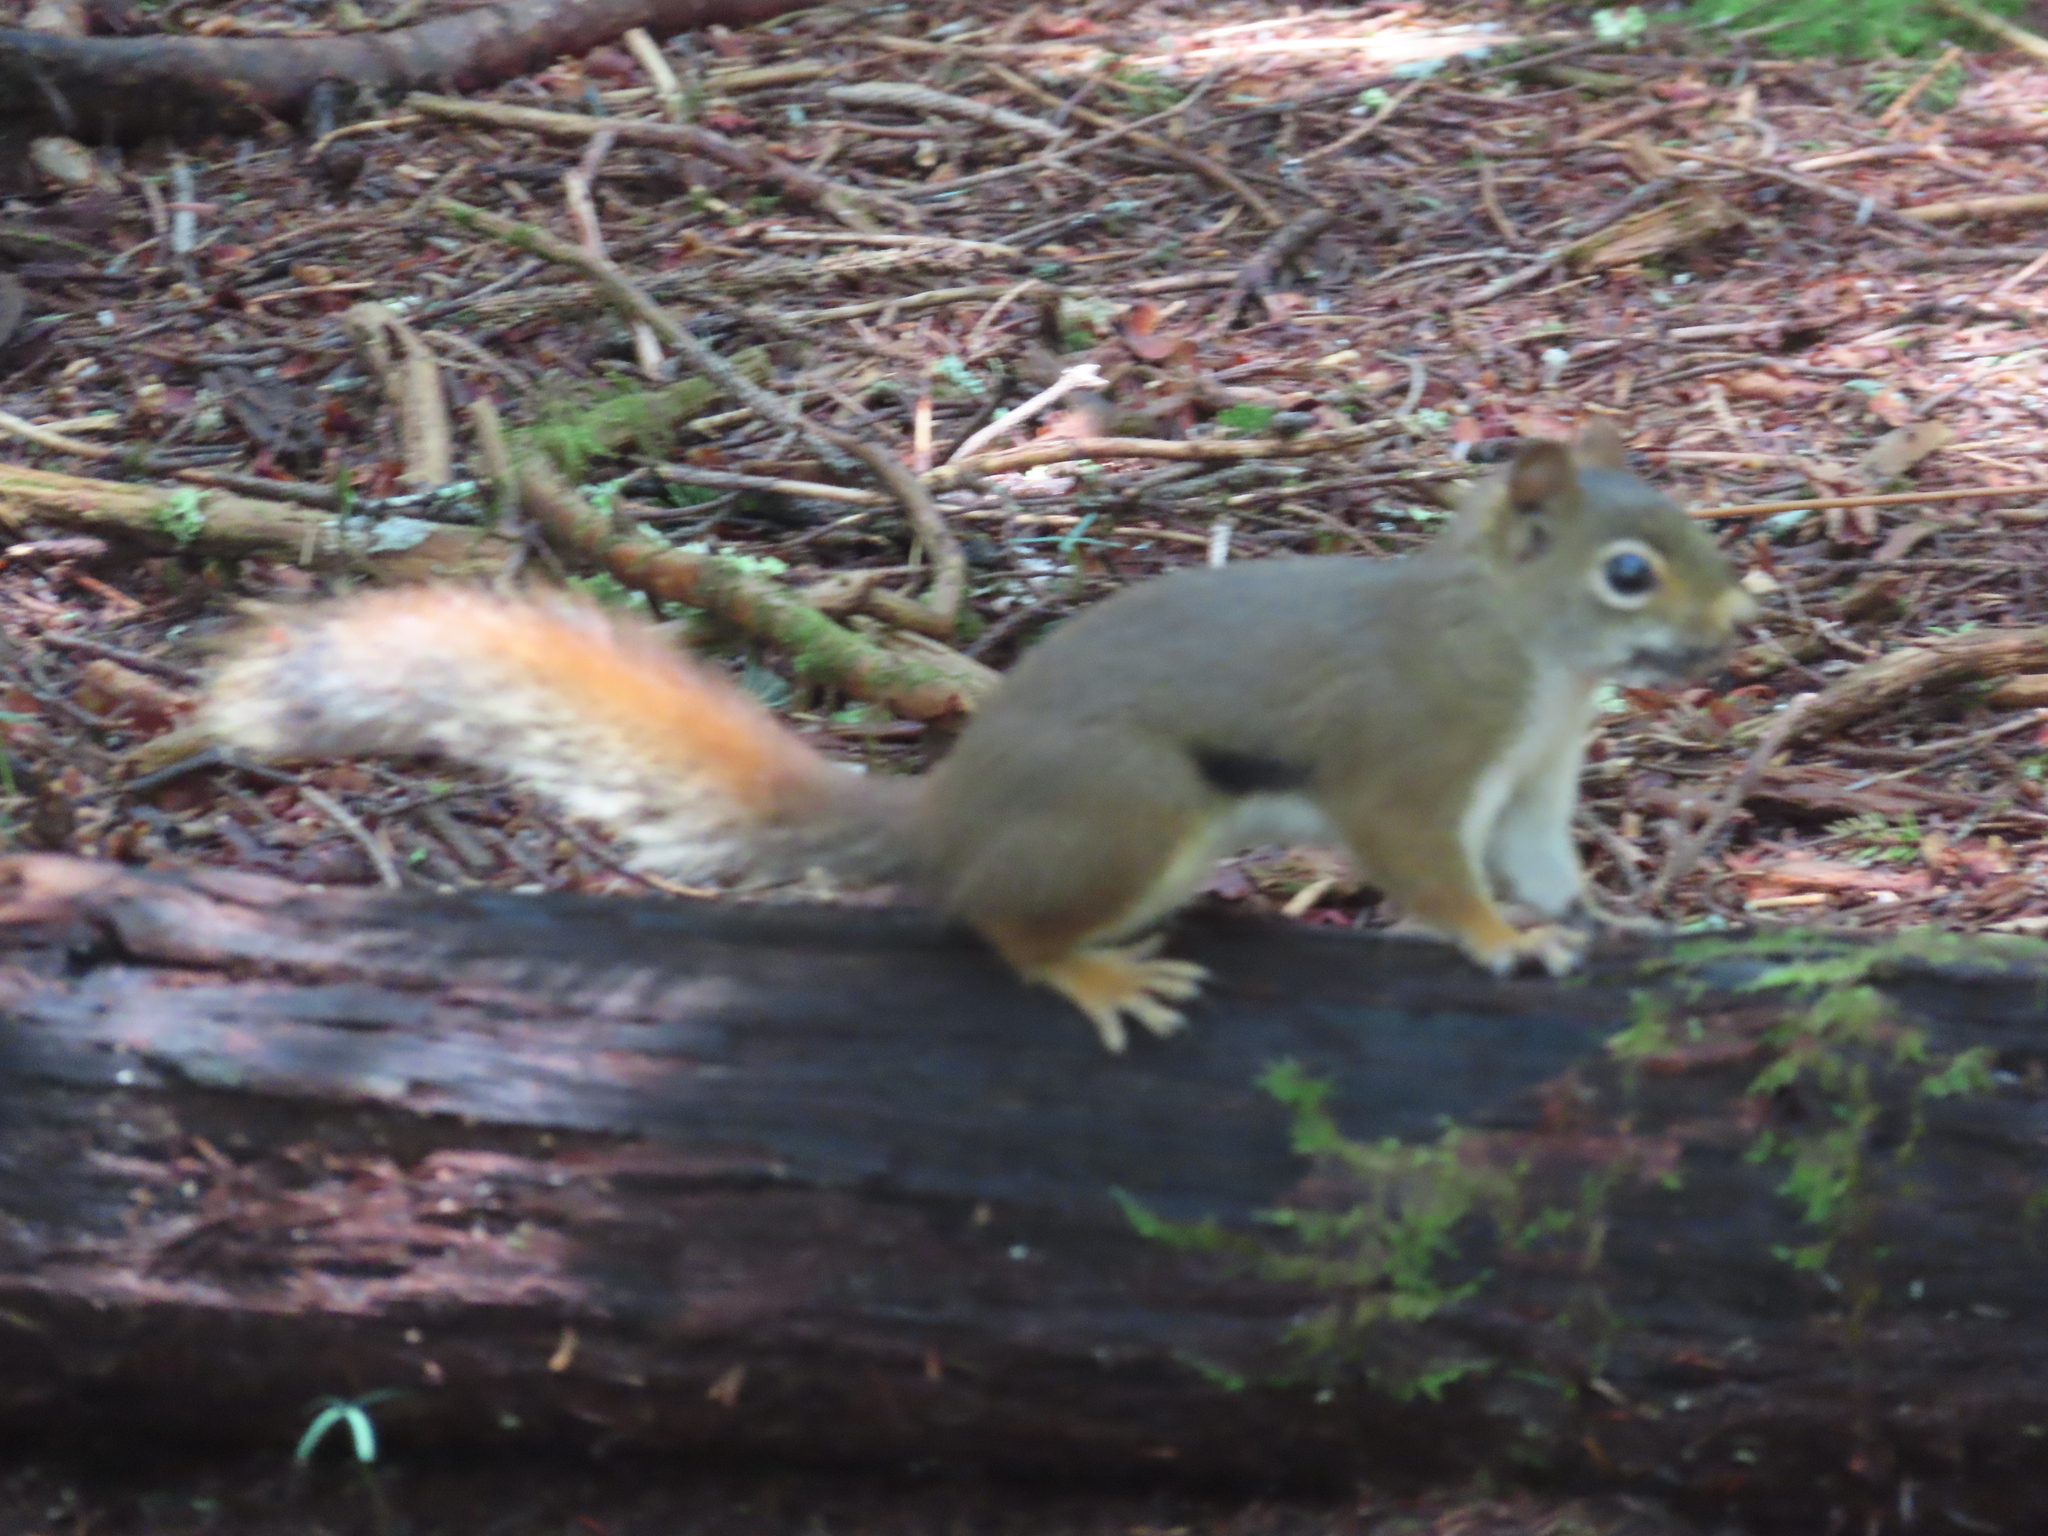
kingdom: Animalia
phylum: Chordata
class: Mammalia
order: Rodentia
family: Sciuridae
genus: Tamiasciurus
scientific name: Tamiasciurus hudsonicus
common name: Red squirrel
